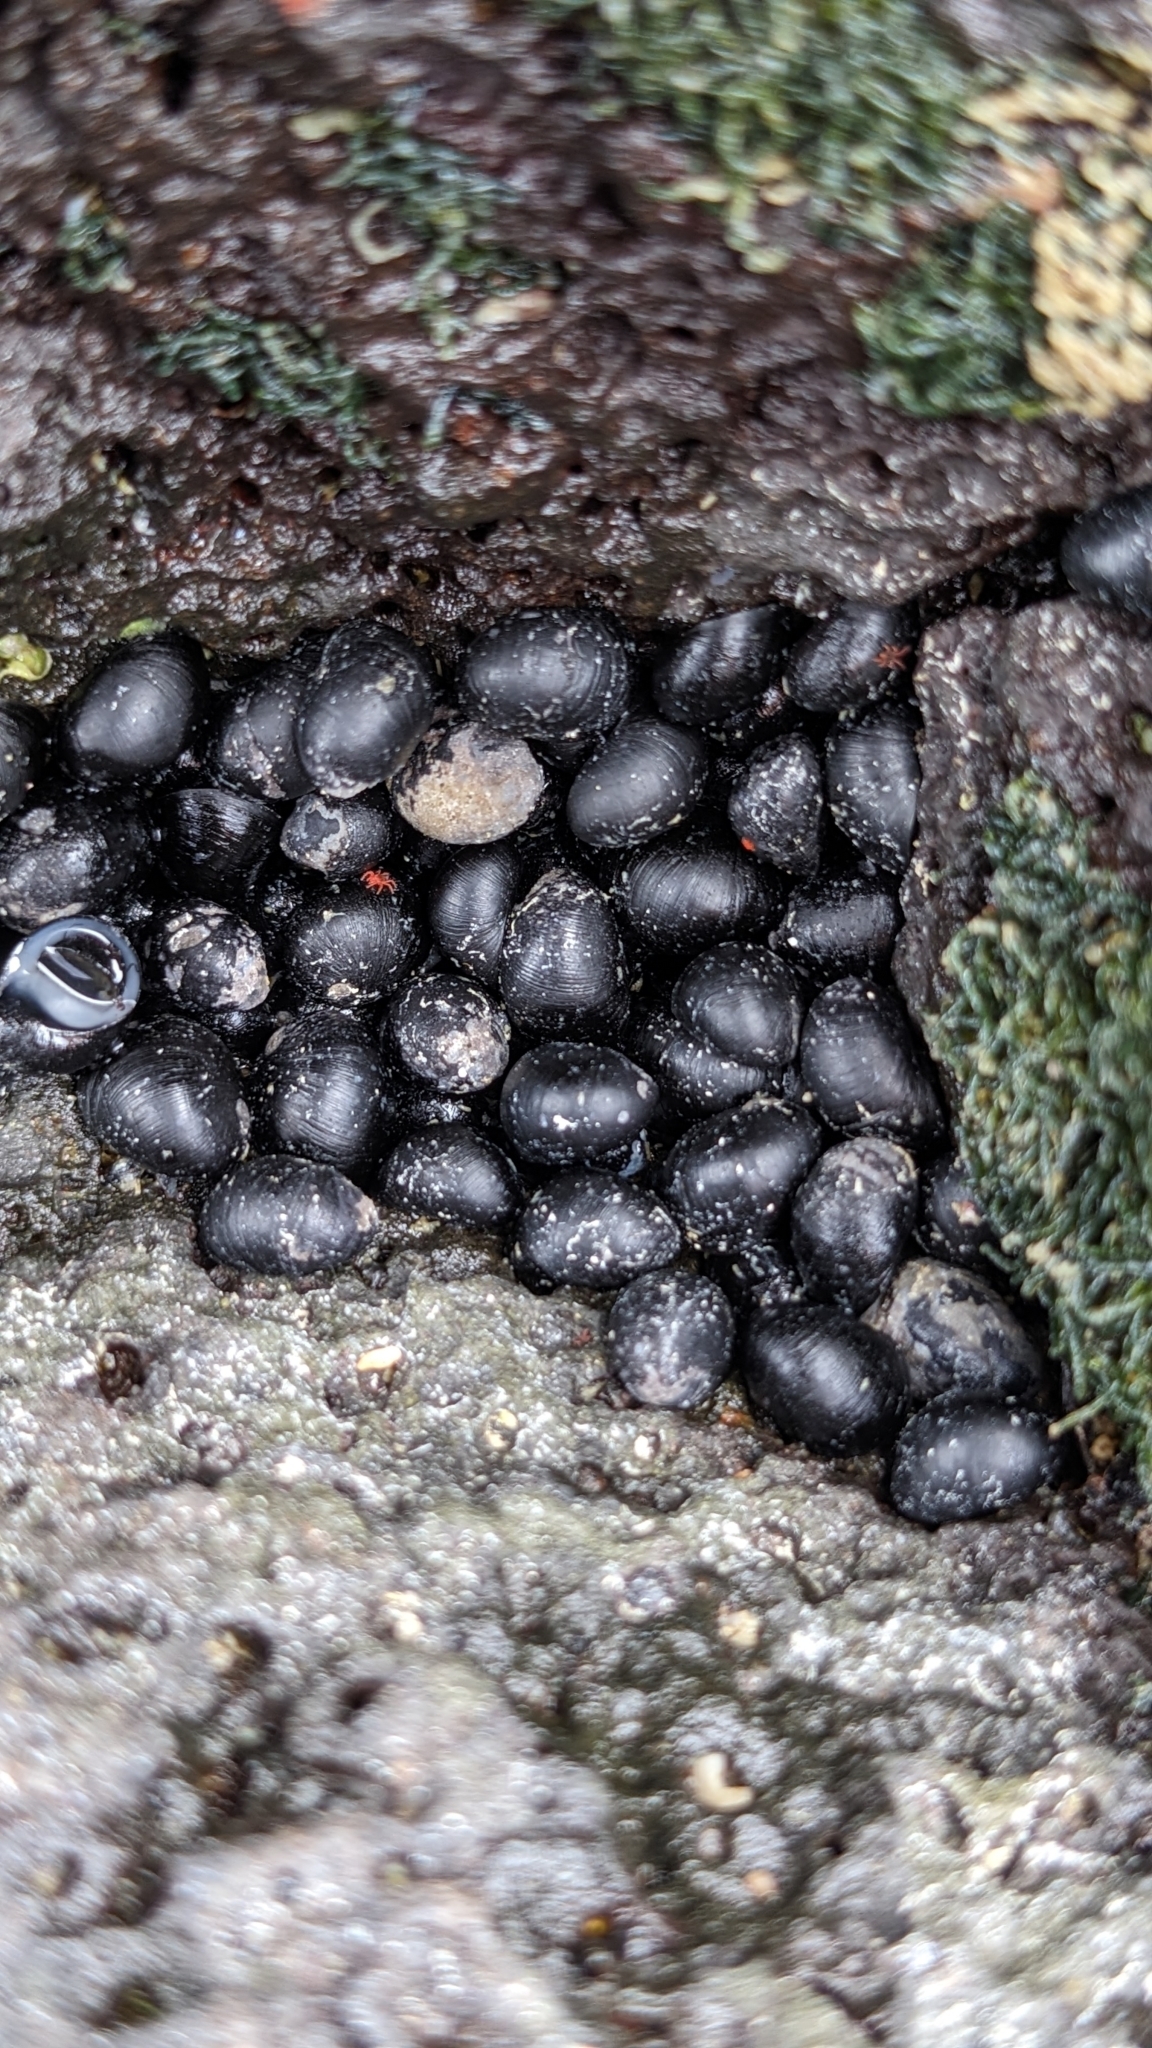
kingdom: Animalia
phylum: Mollusca
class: Gastropoda
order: Cycloneritida
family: Neritidae
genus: Nerita
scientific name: Nerita picea
